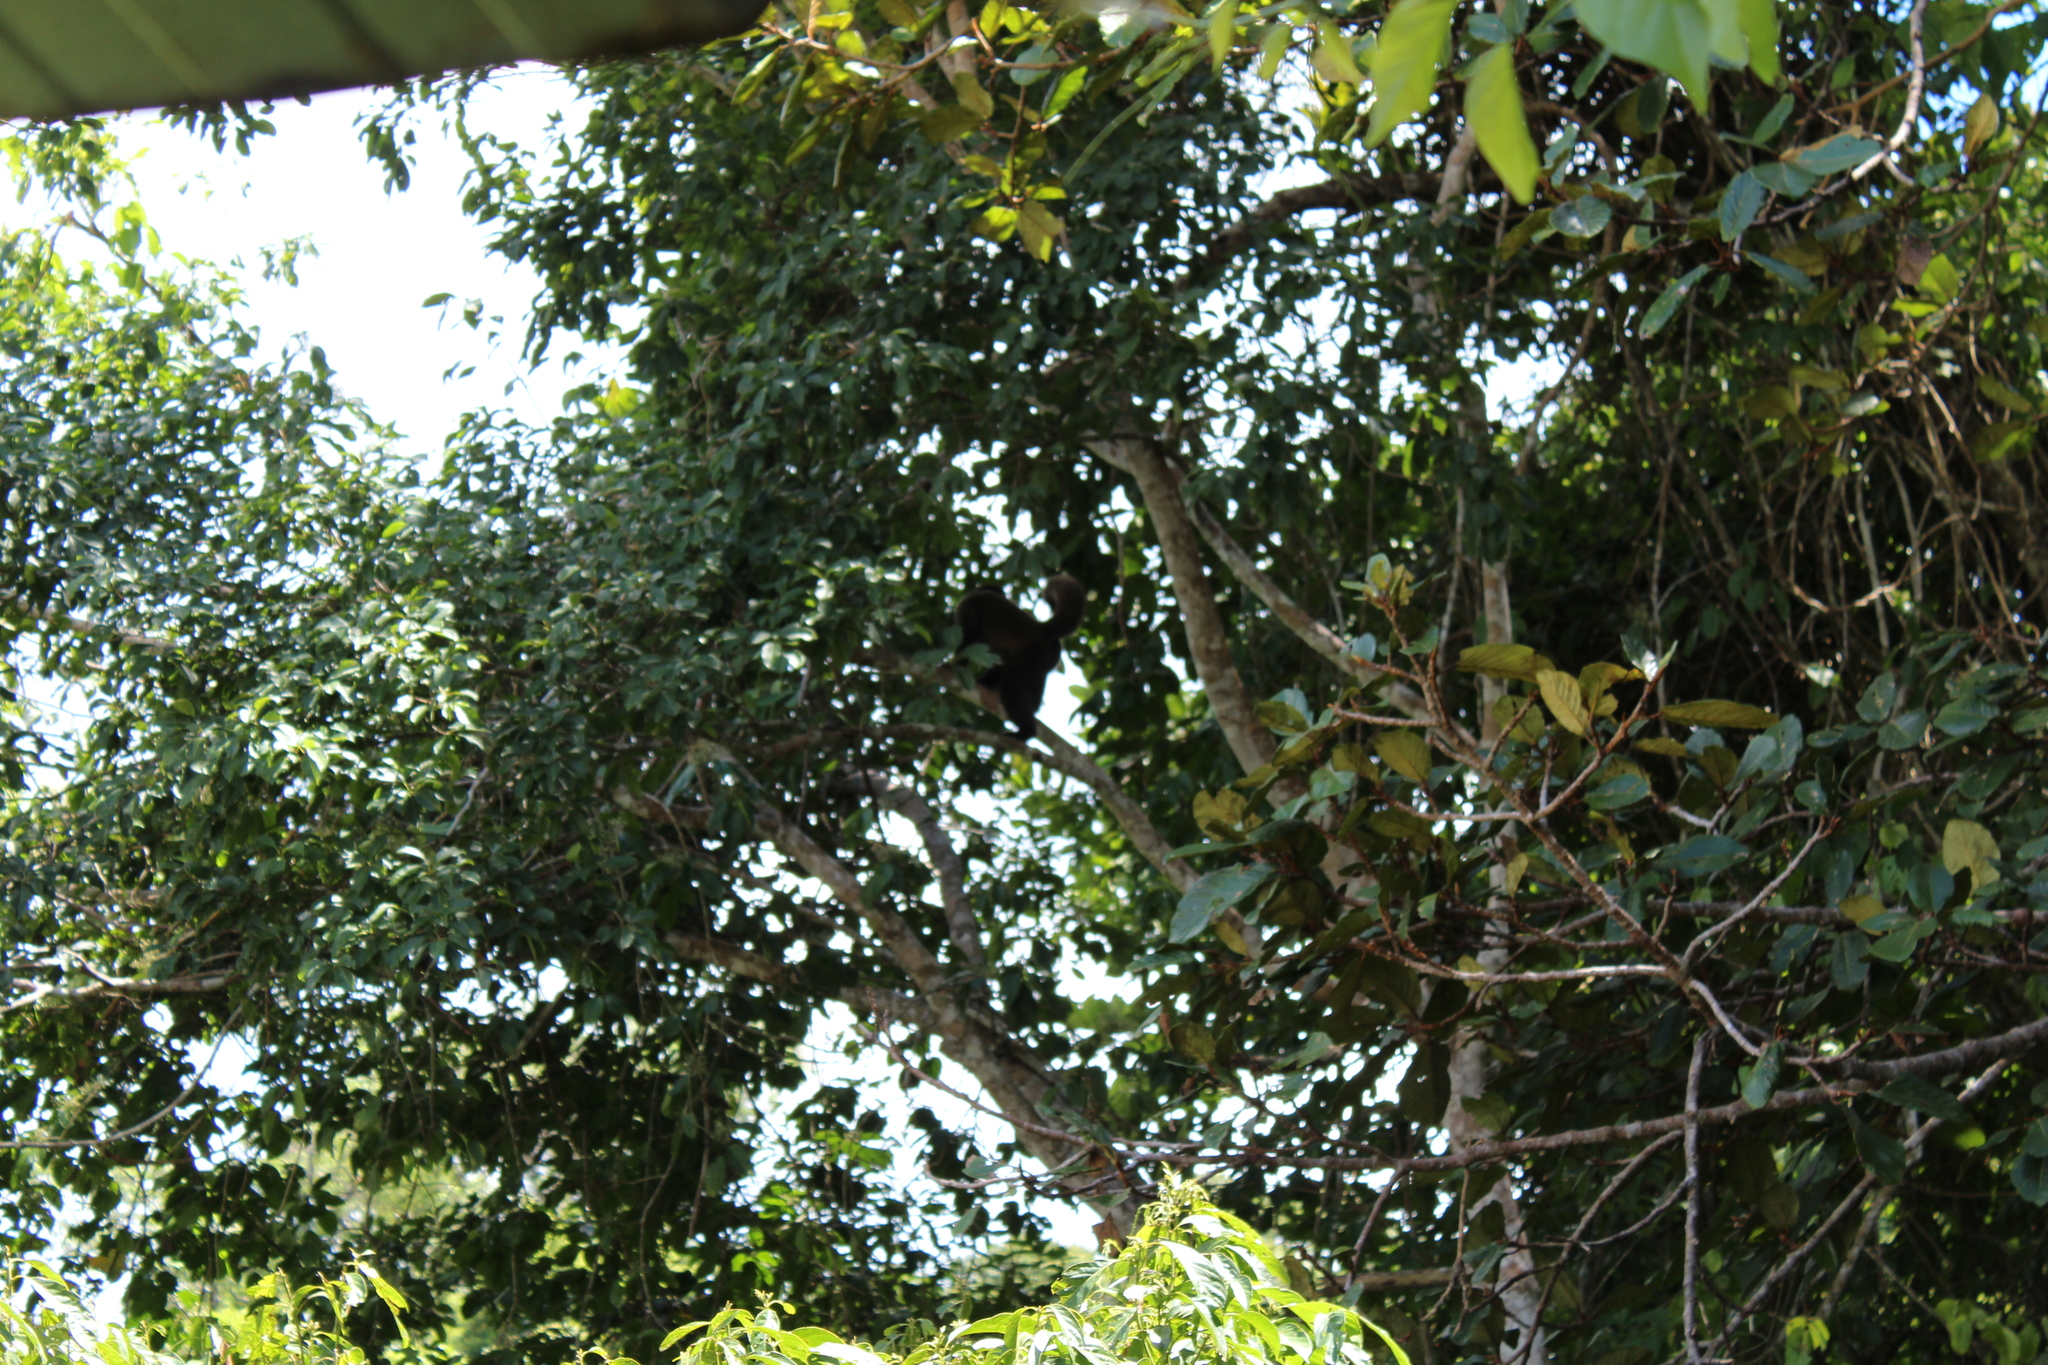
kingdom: Animalia
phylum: Chordata
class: Mammalia
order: Primates
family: Atelidae
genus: Lagothrix
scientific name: Lagothrix lagothricha
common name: Brown woolly monkey
